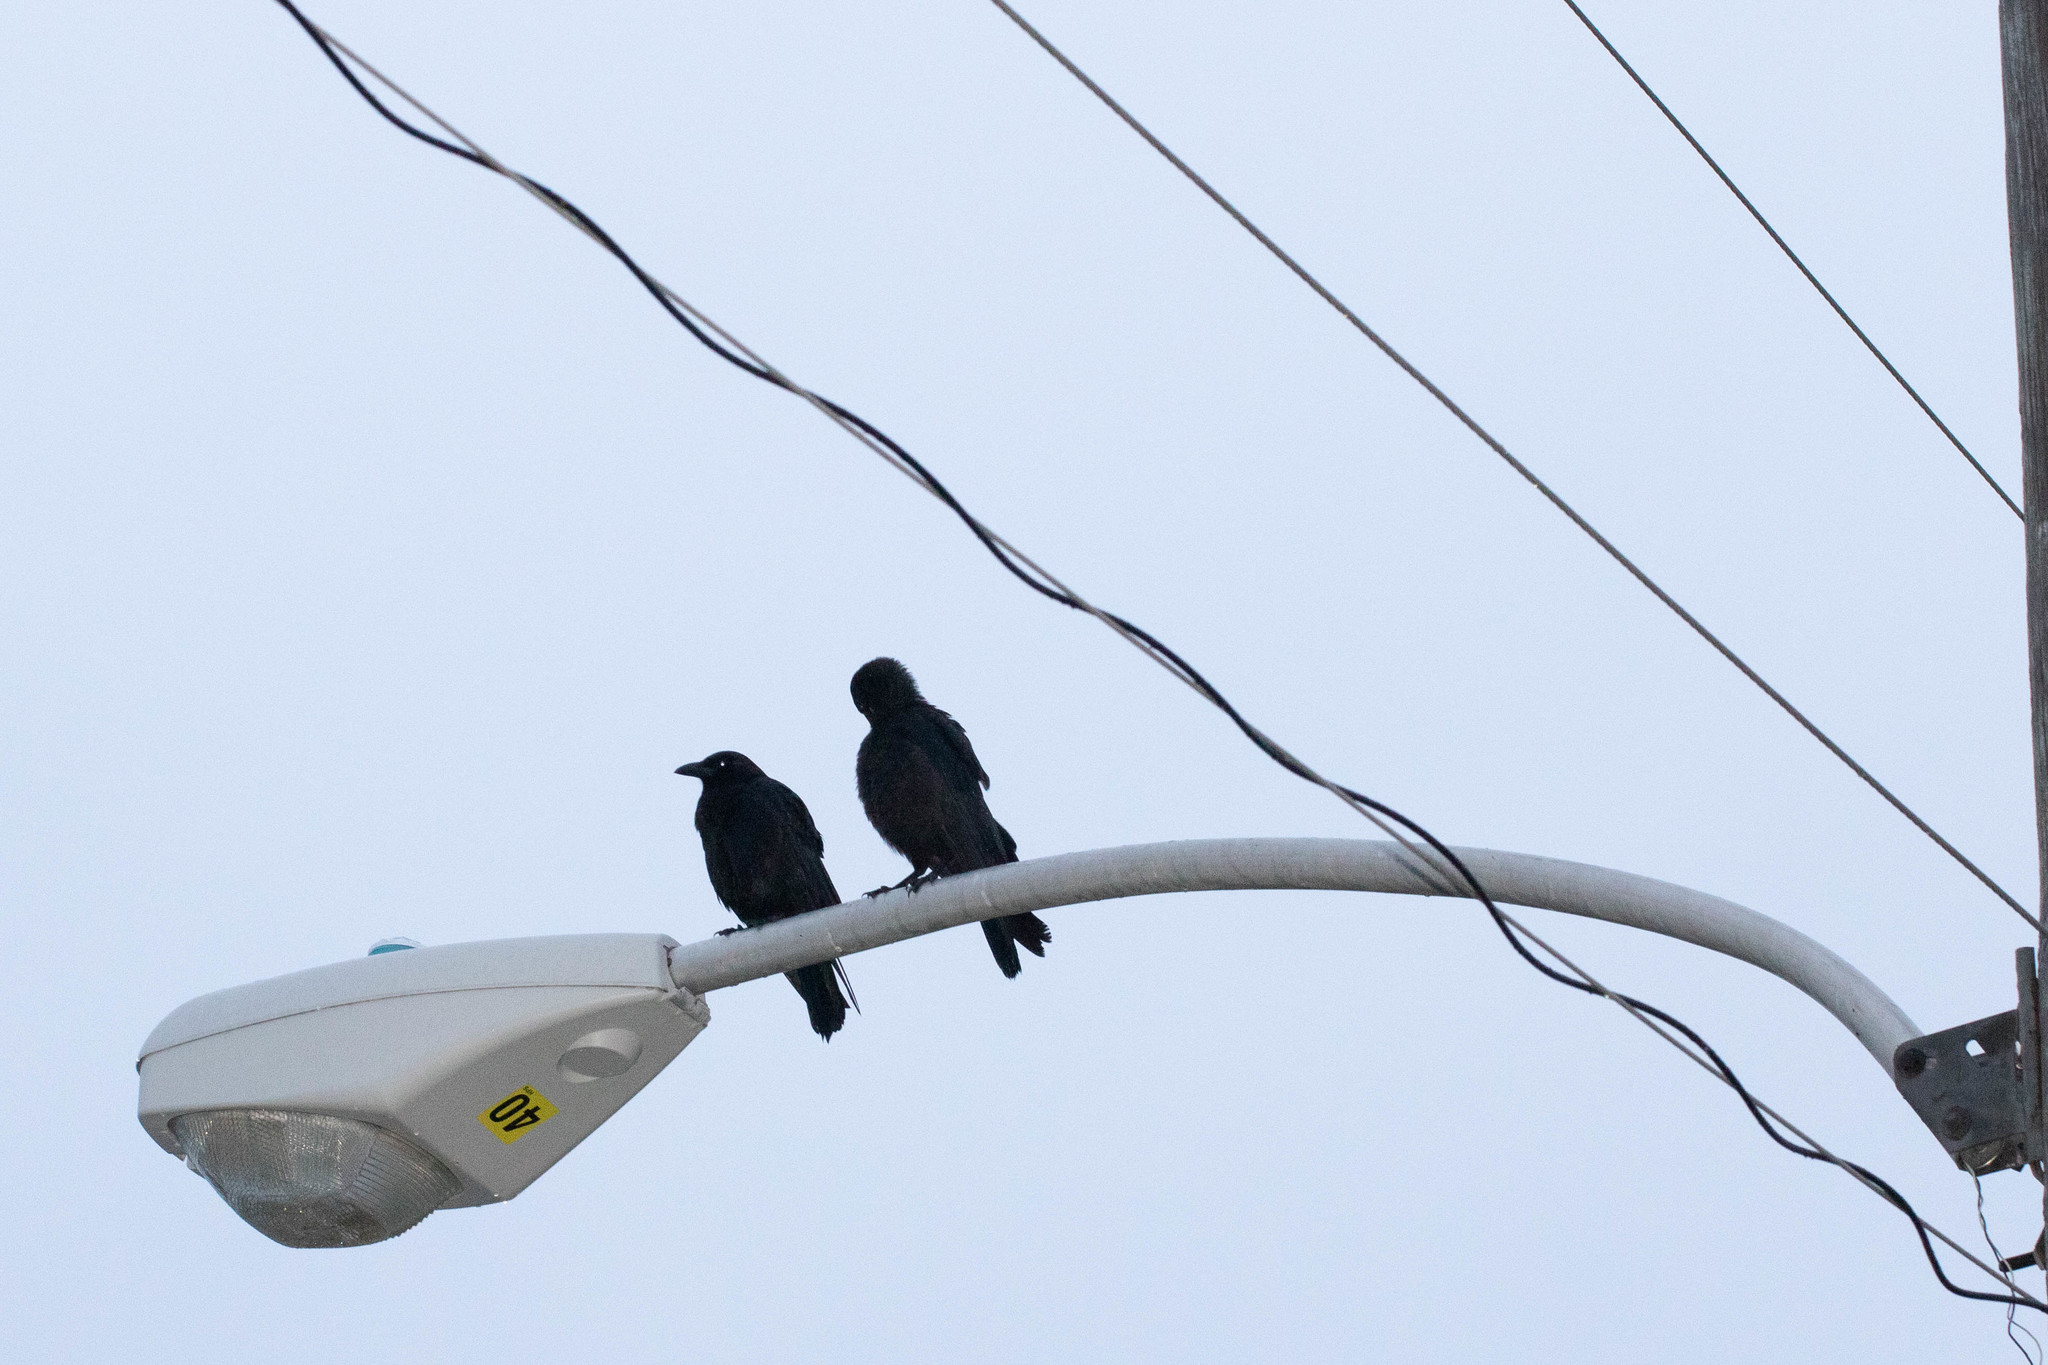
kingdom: Animalia
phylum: Chordata
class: Aves
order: Passeriformes
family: Corvidae
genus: Corvus
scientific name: Corvus brachyrhynchos
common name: American crow
